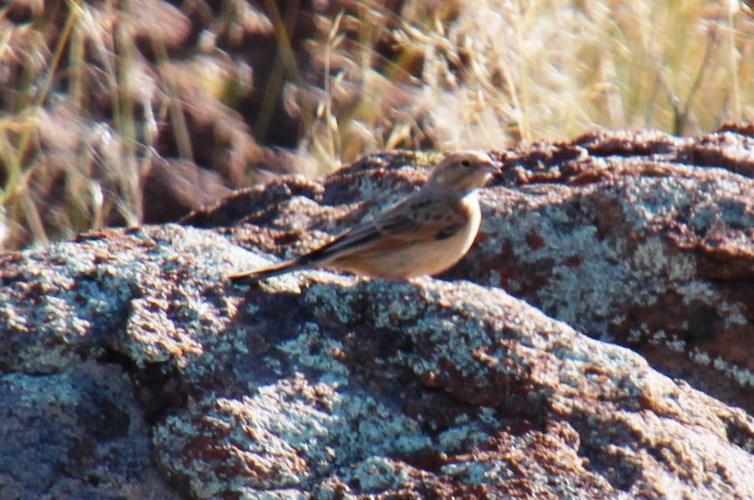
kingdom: Animalia
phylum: Chordata
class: Aves
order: Passeriformes
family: Emberizidae
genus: Emberiza
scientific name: Emberiza impetuani
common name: Lark-like bunting
